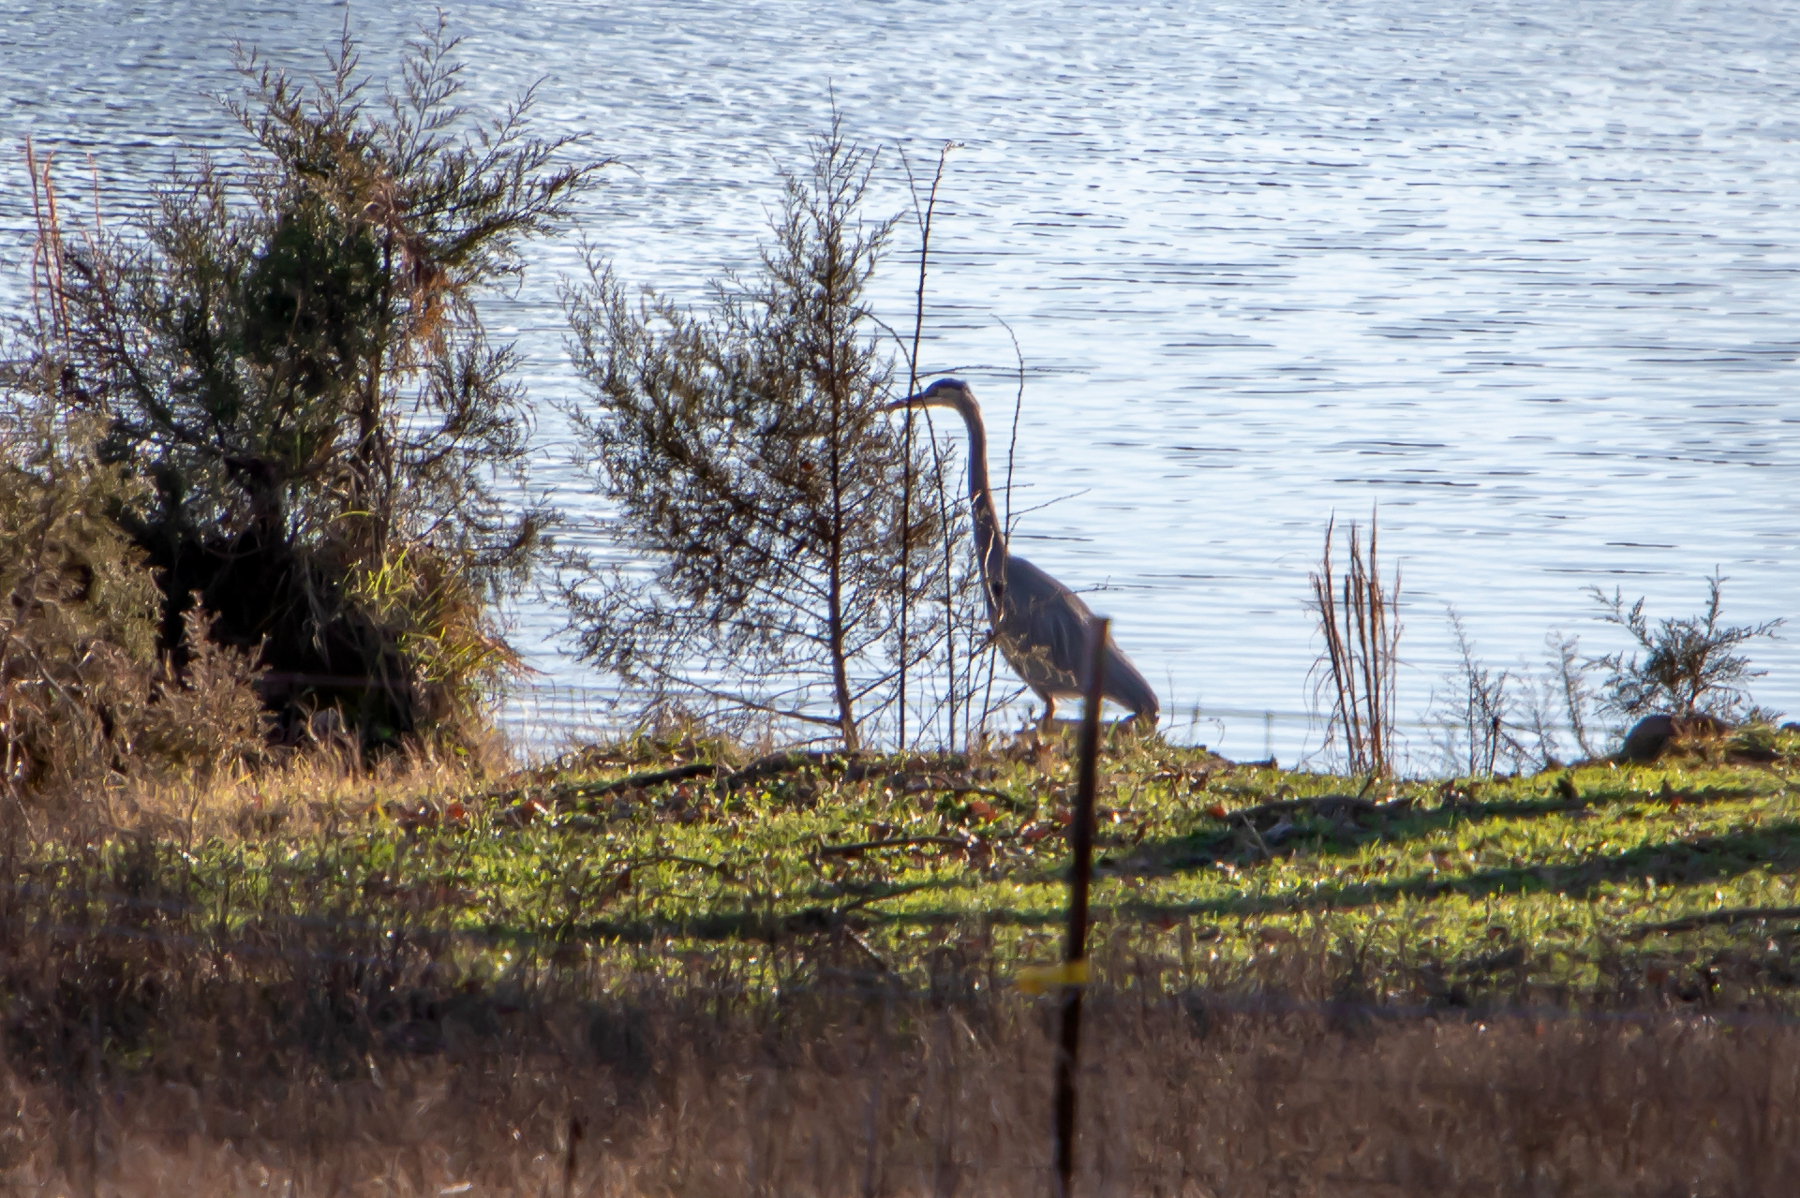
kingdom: Animalia
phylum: Chordata
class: Aves
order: Pelecaniformes
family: Ardeidae
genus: Ardea
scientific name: Ardea herodias
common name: Great blue heron
